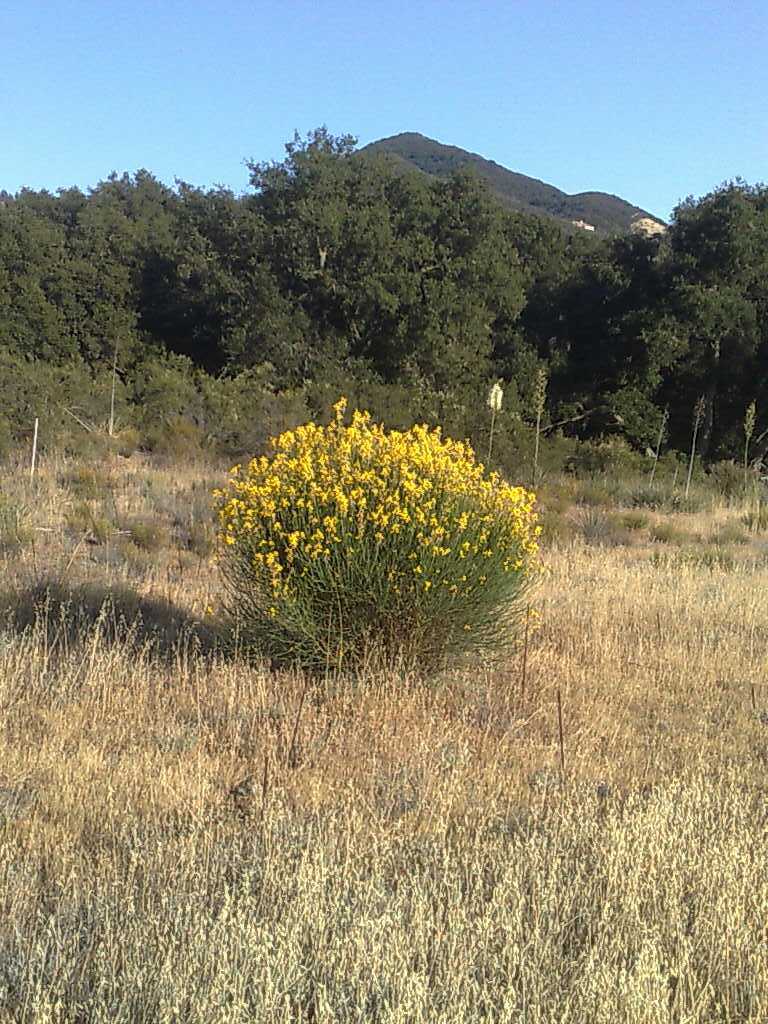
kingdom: Plantae
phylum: Tracheophyta
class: Magnoliopsida
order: Rosales
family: Rosaceae
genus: Adenostoma
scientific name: Adenostoma fasciculatum
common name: Chamise
